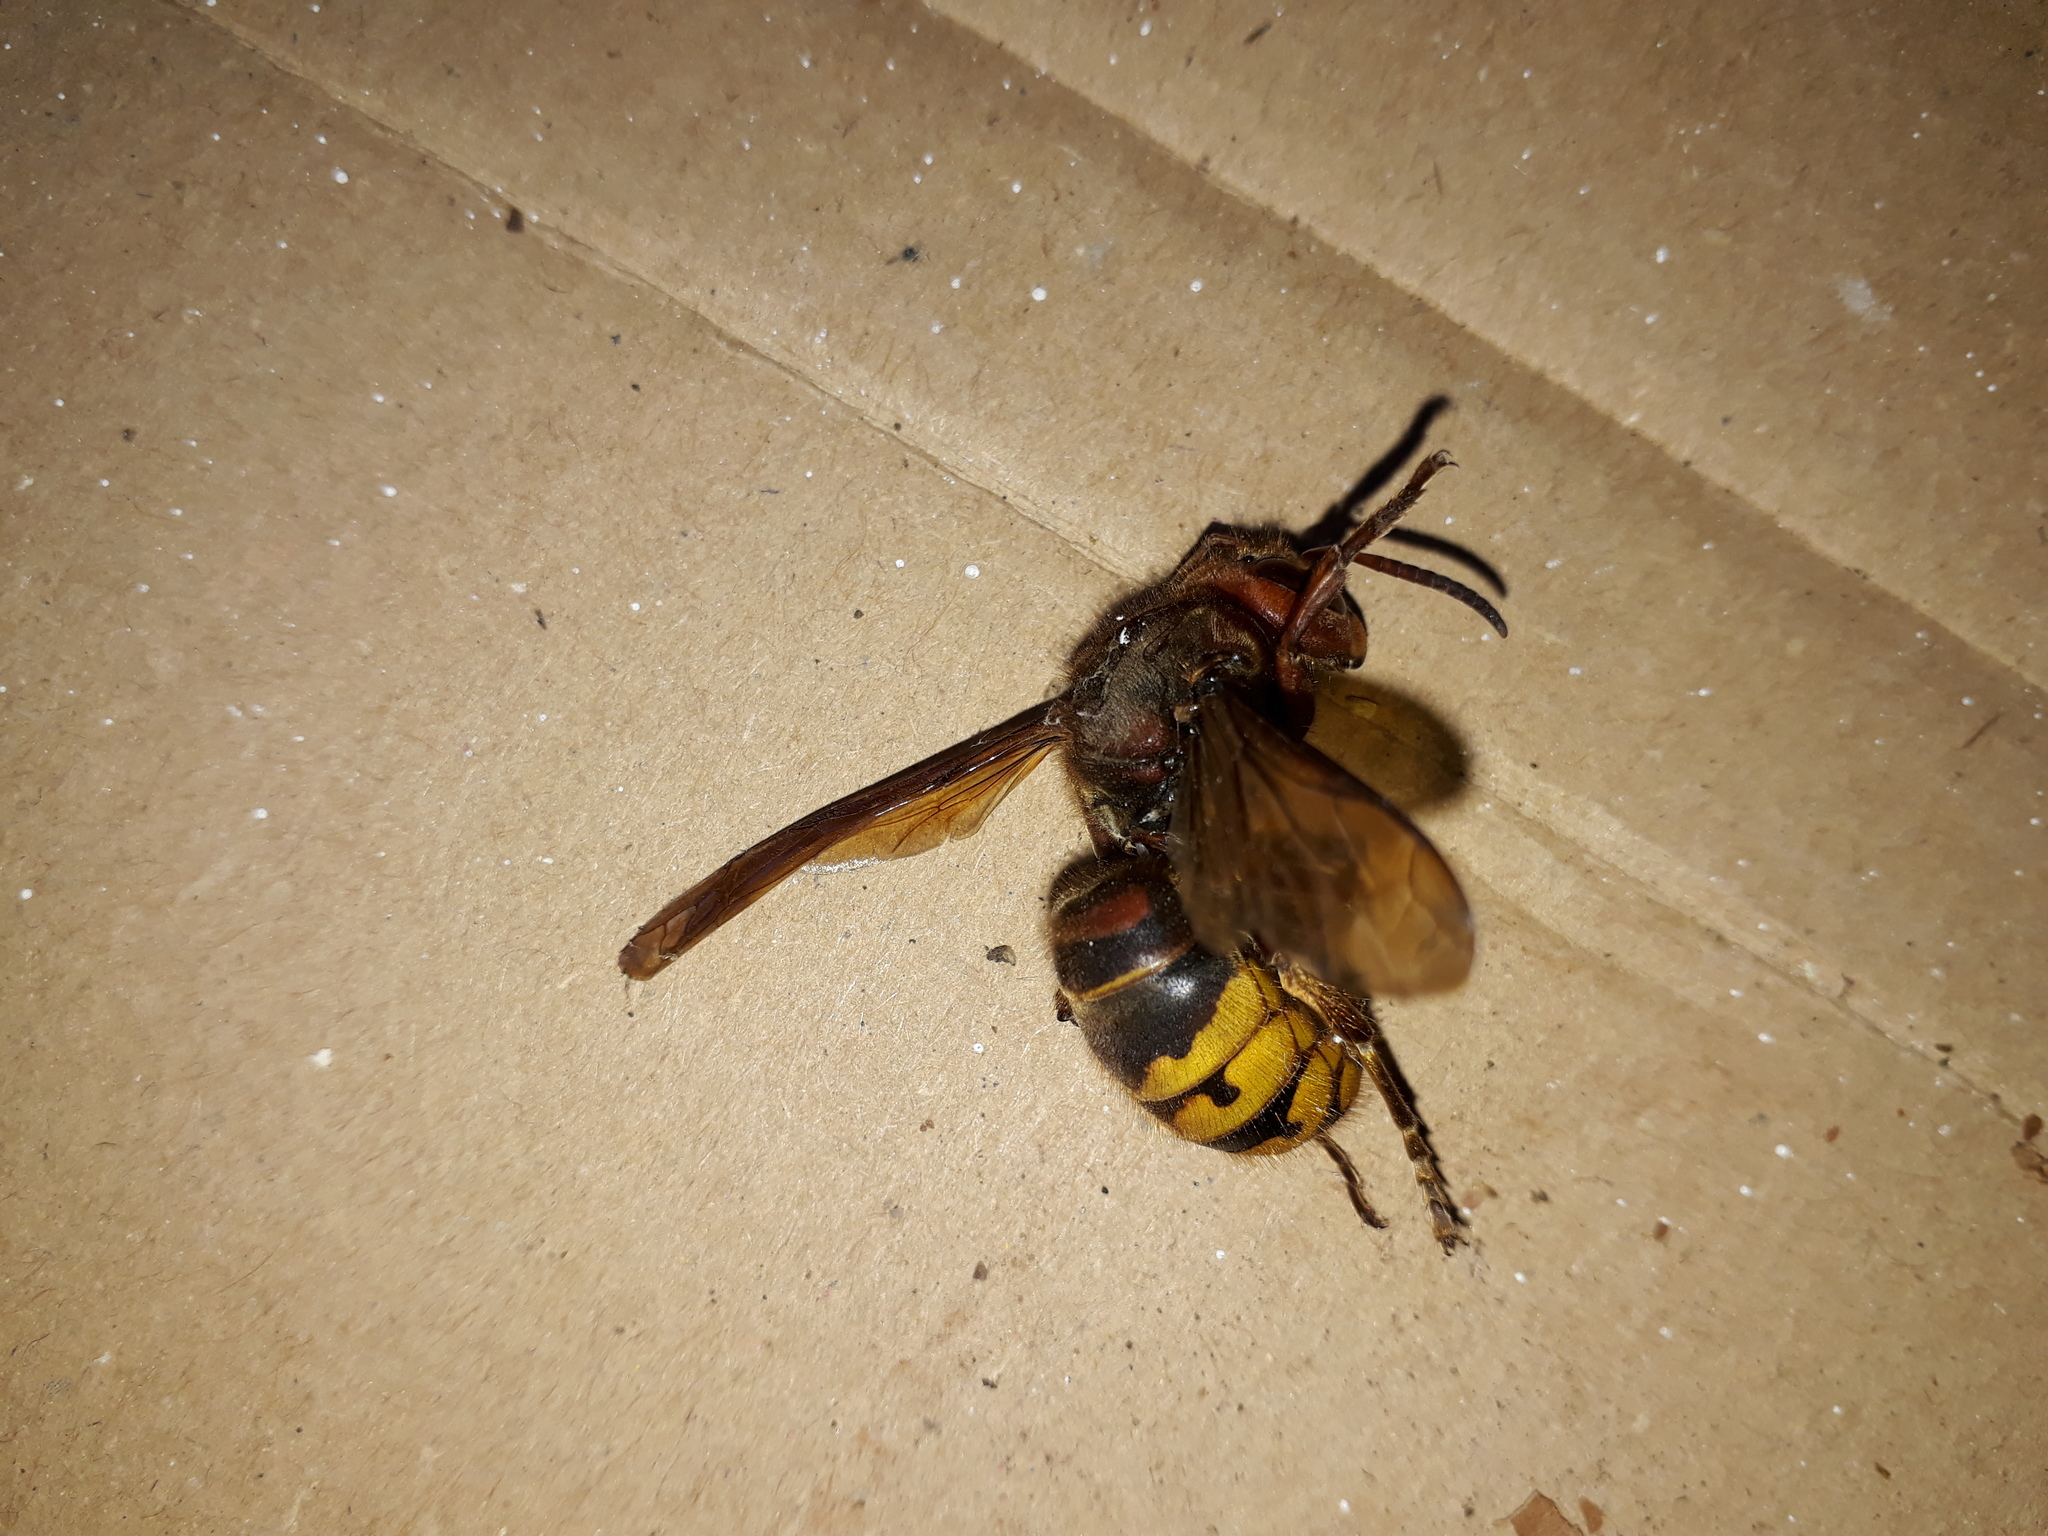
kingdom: Animalia
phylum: Arthropoda
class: Insecta
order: Hymenoptera
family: Vespidae
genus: Vespa
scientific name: Vespa crabro
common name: Hornet
